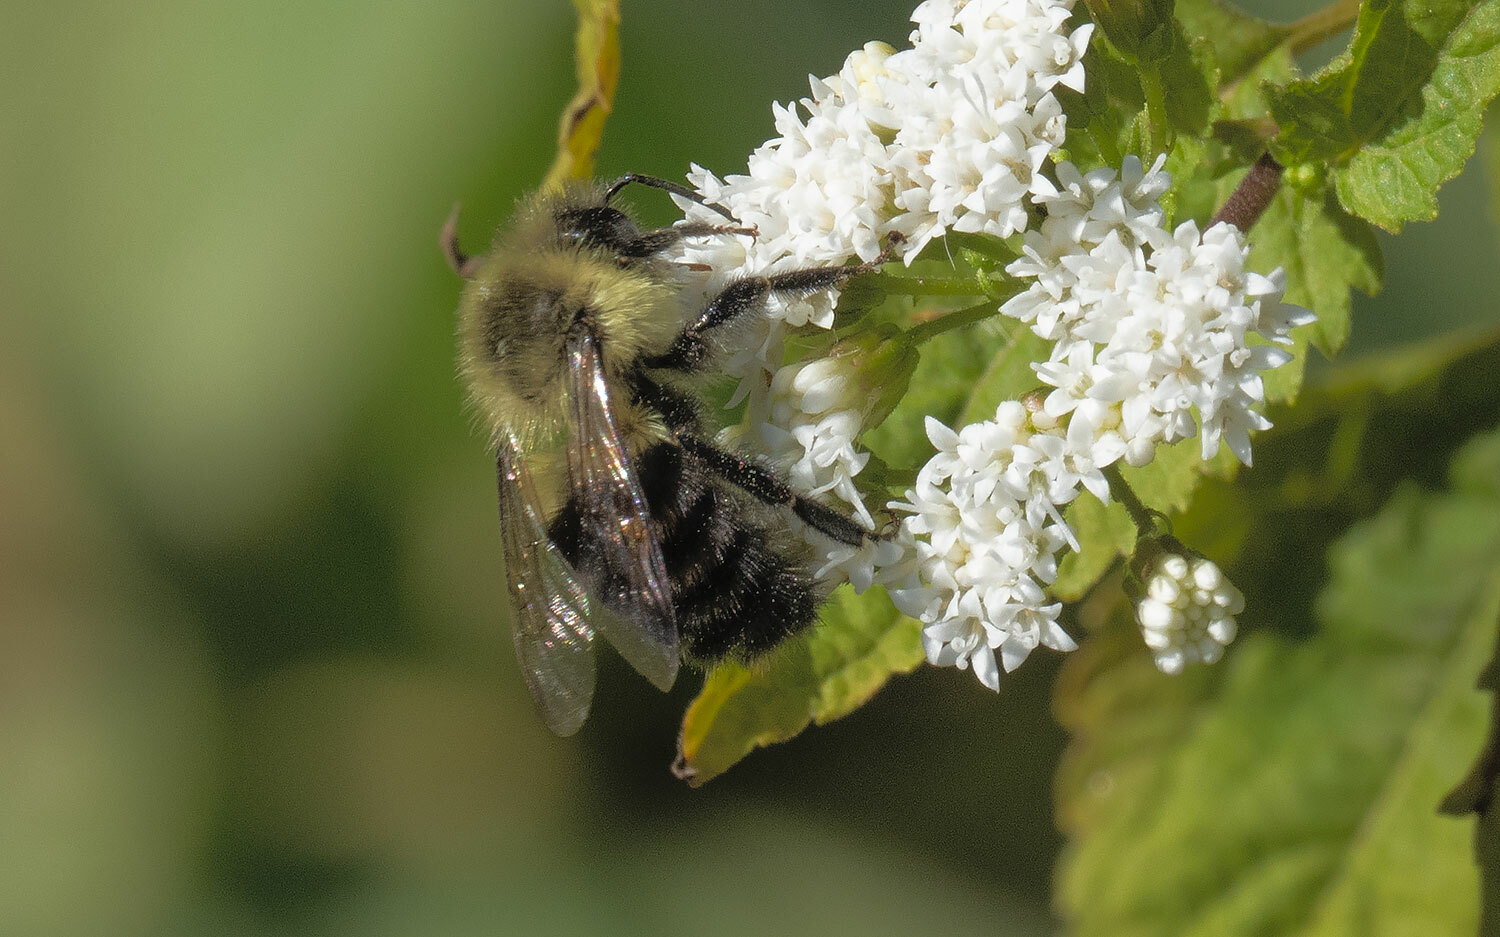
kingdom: Animalia
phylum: Arthropoda
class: Insecta
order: Hymenoptera
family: Apidae
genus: Bombus
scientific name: Bombus impatiens
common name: Common eastern bumble bee
